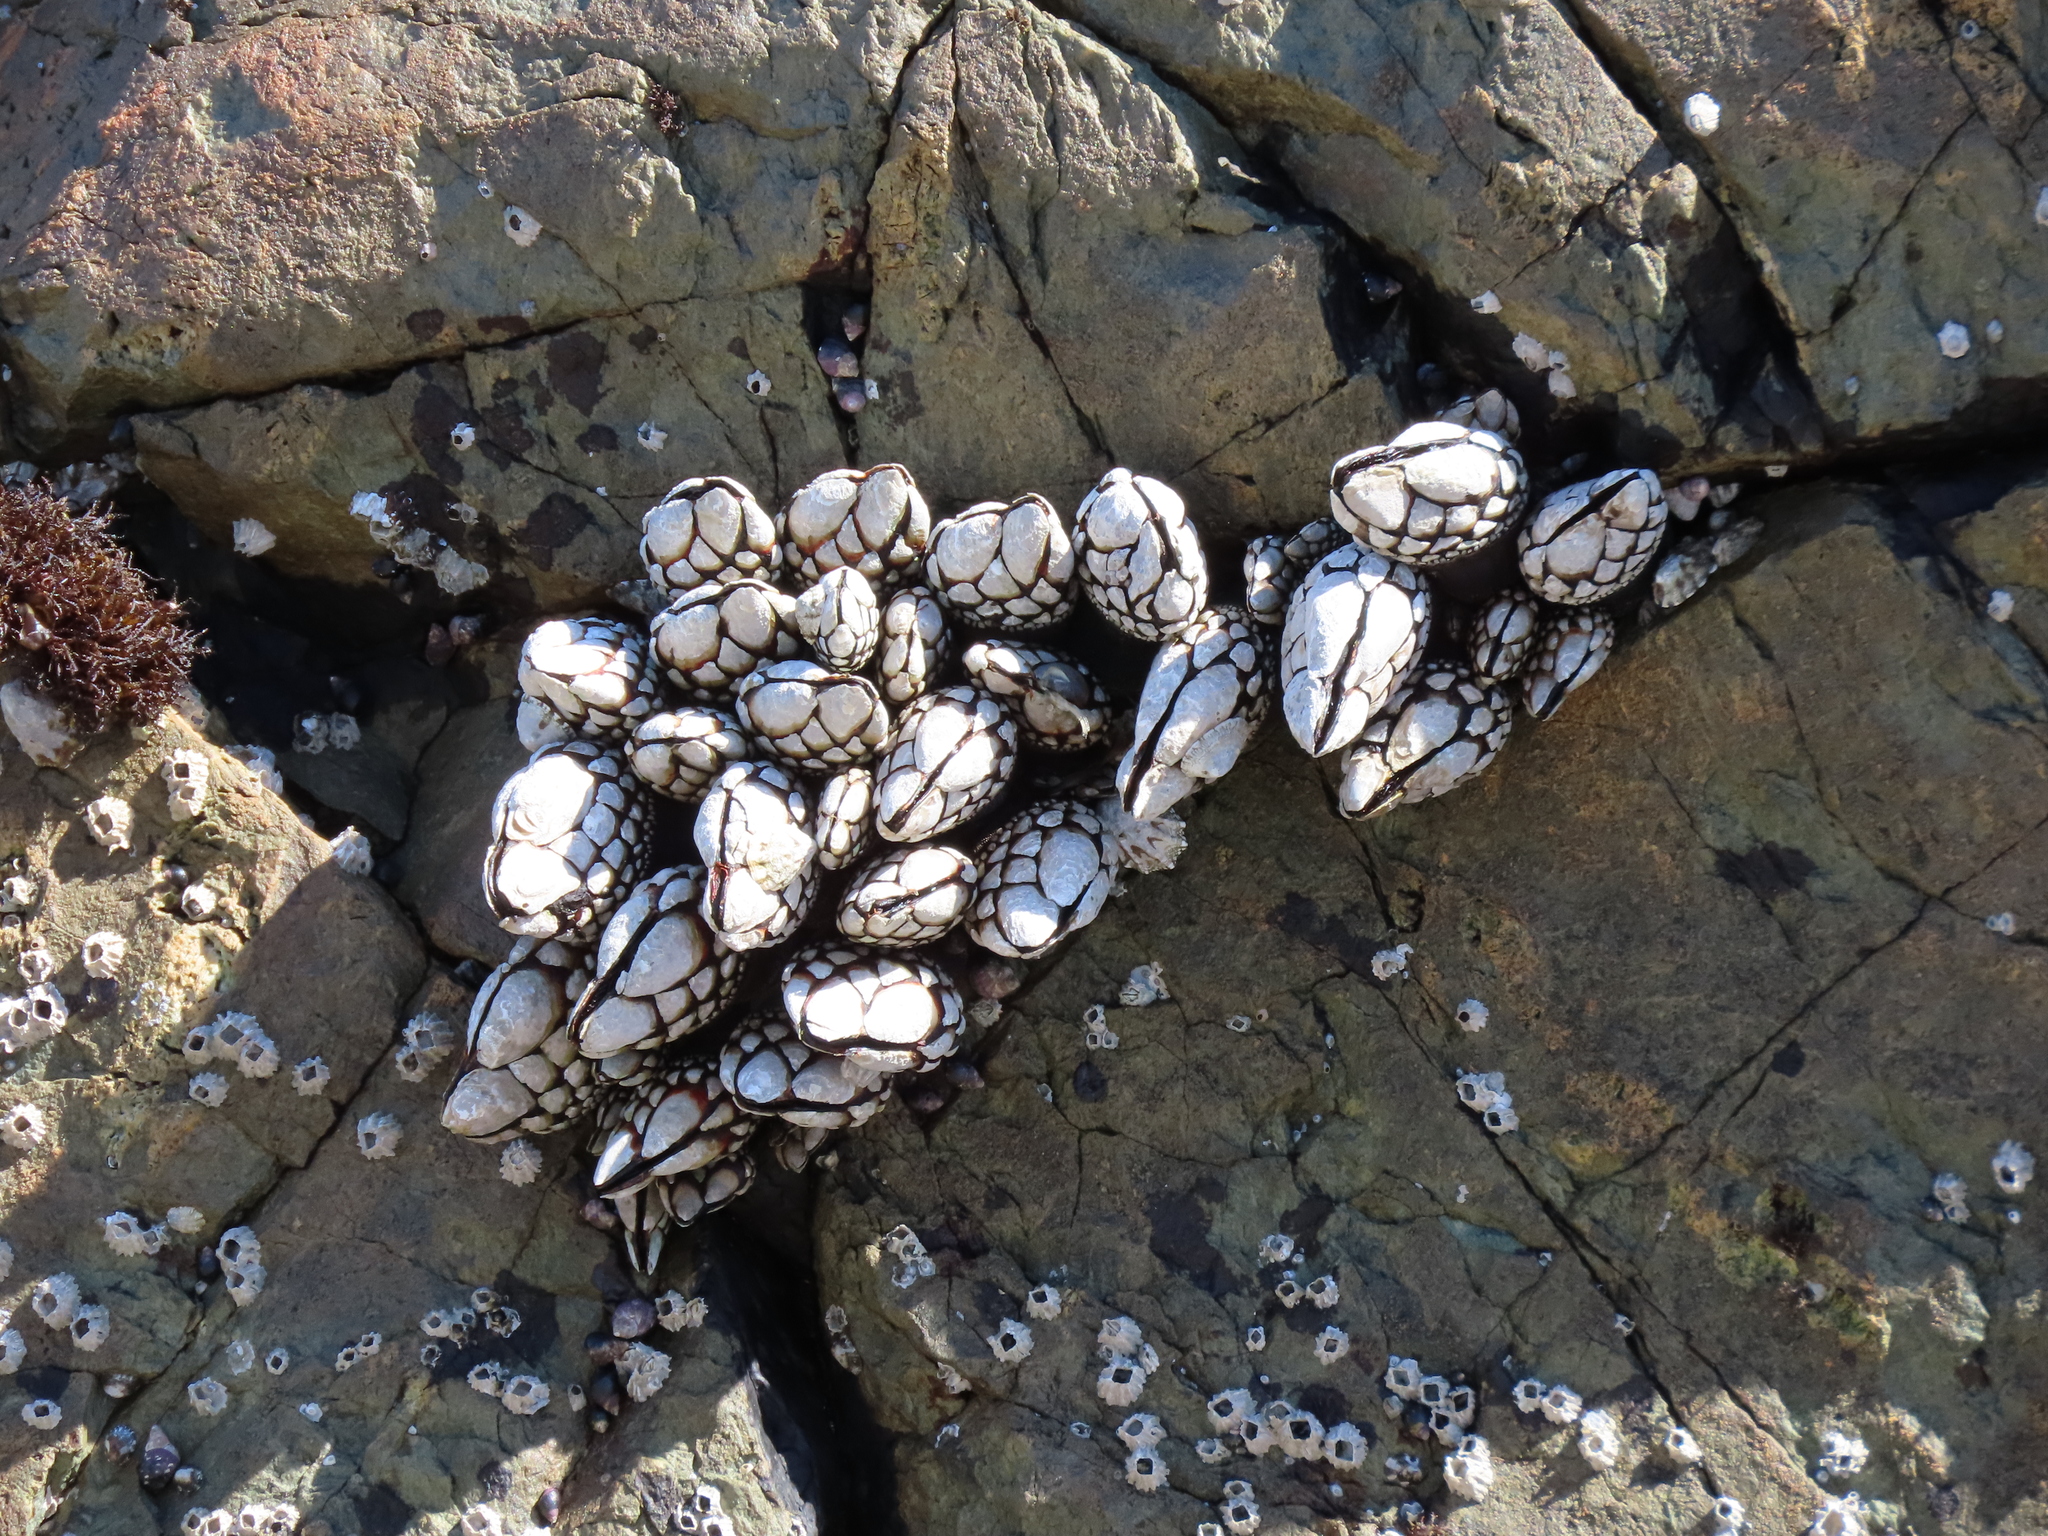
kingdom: Animalia
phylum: Arthropoda
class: Maxillopoda
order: Pedunculata
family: Pollicipedidae
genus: Pollicipes
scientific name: Pollicipes polymerus
